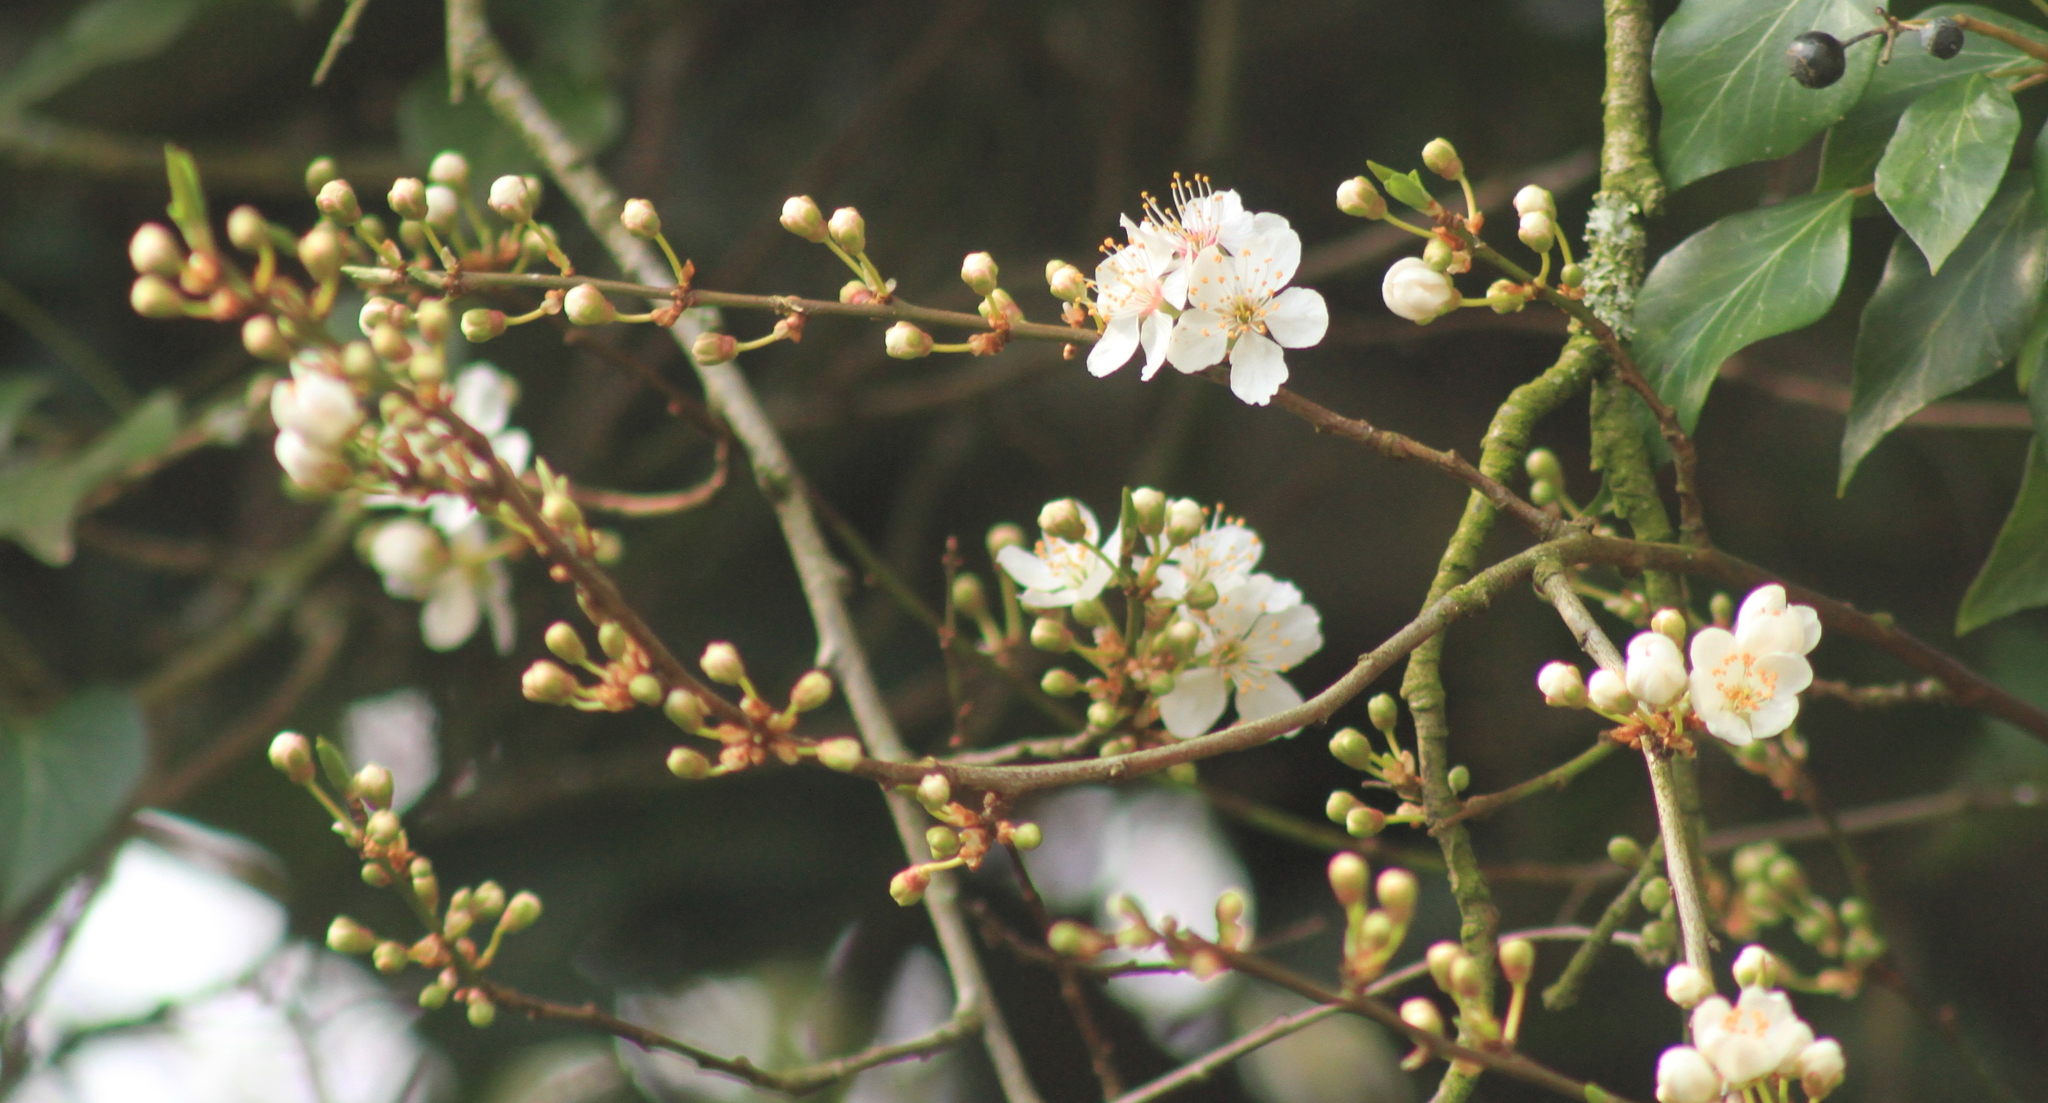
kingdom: Plantae
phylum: Tracheophyta
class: Magnoliopsida
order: Rosales
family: Rosaceae
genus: Prunus
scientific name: Prunus cerasifera
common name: Cherry plum
